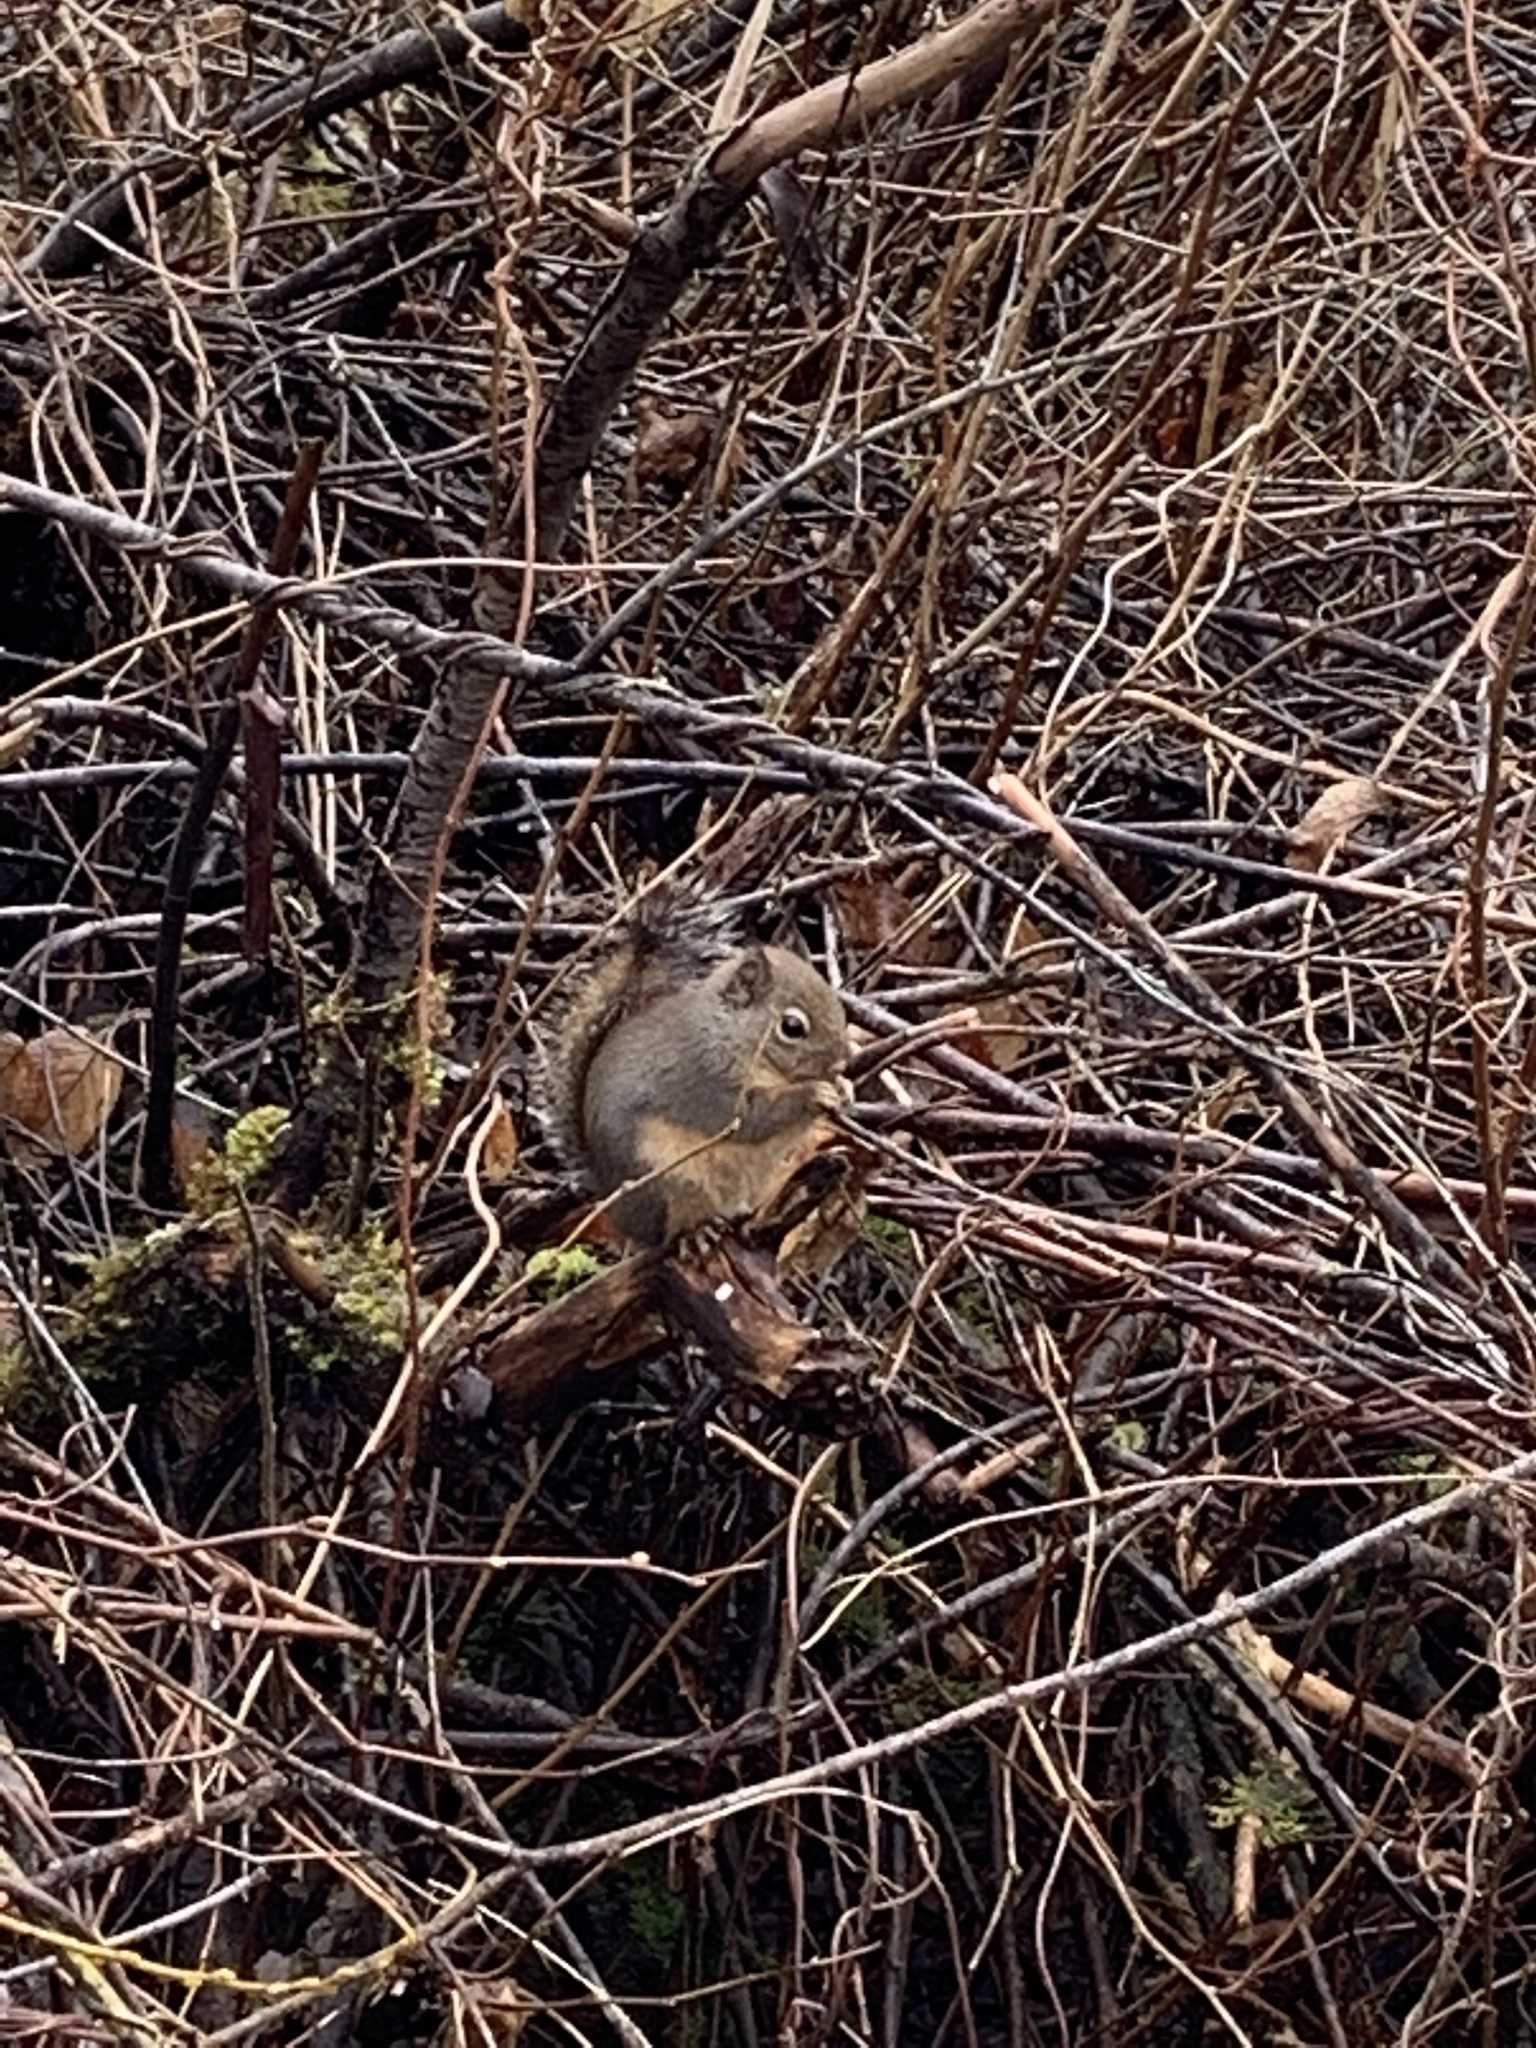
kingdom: Animalia
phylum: Chordata
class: Mammalia
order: Rodentia
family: Sciuridae
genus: Tamiasciurus
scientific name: Tamiasciurus douglasii
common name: Douglas's squirrel
